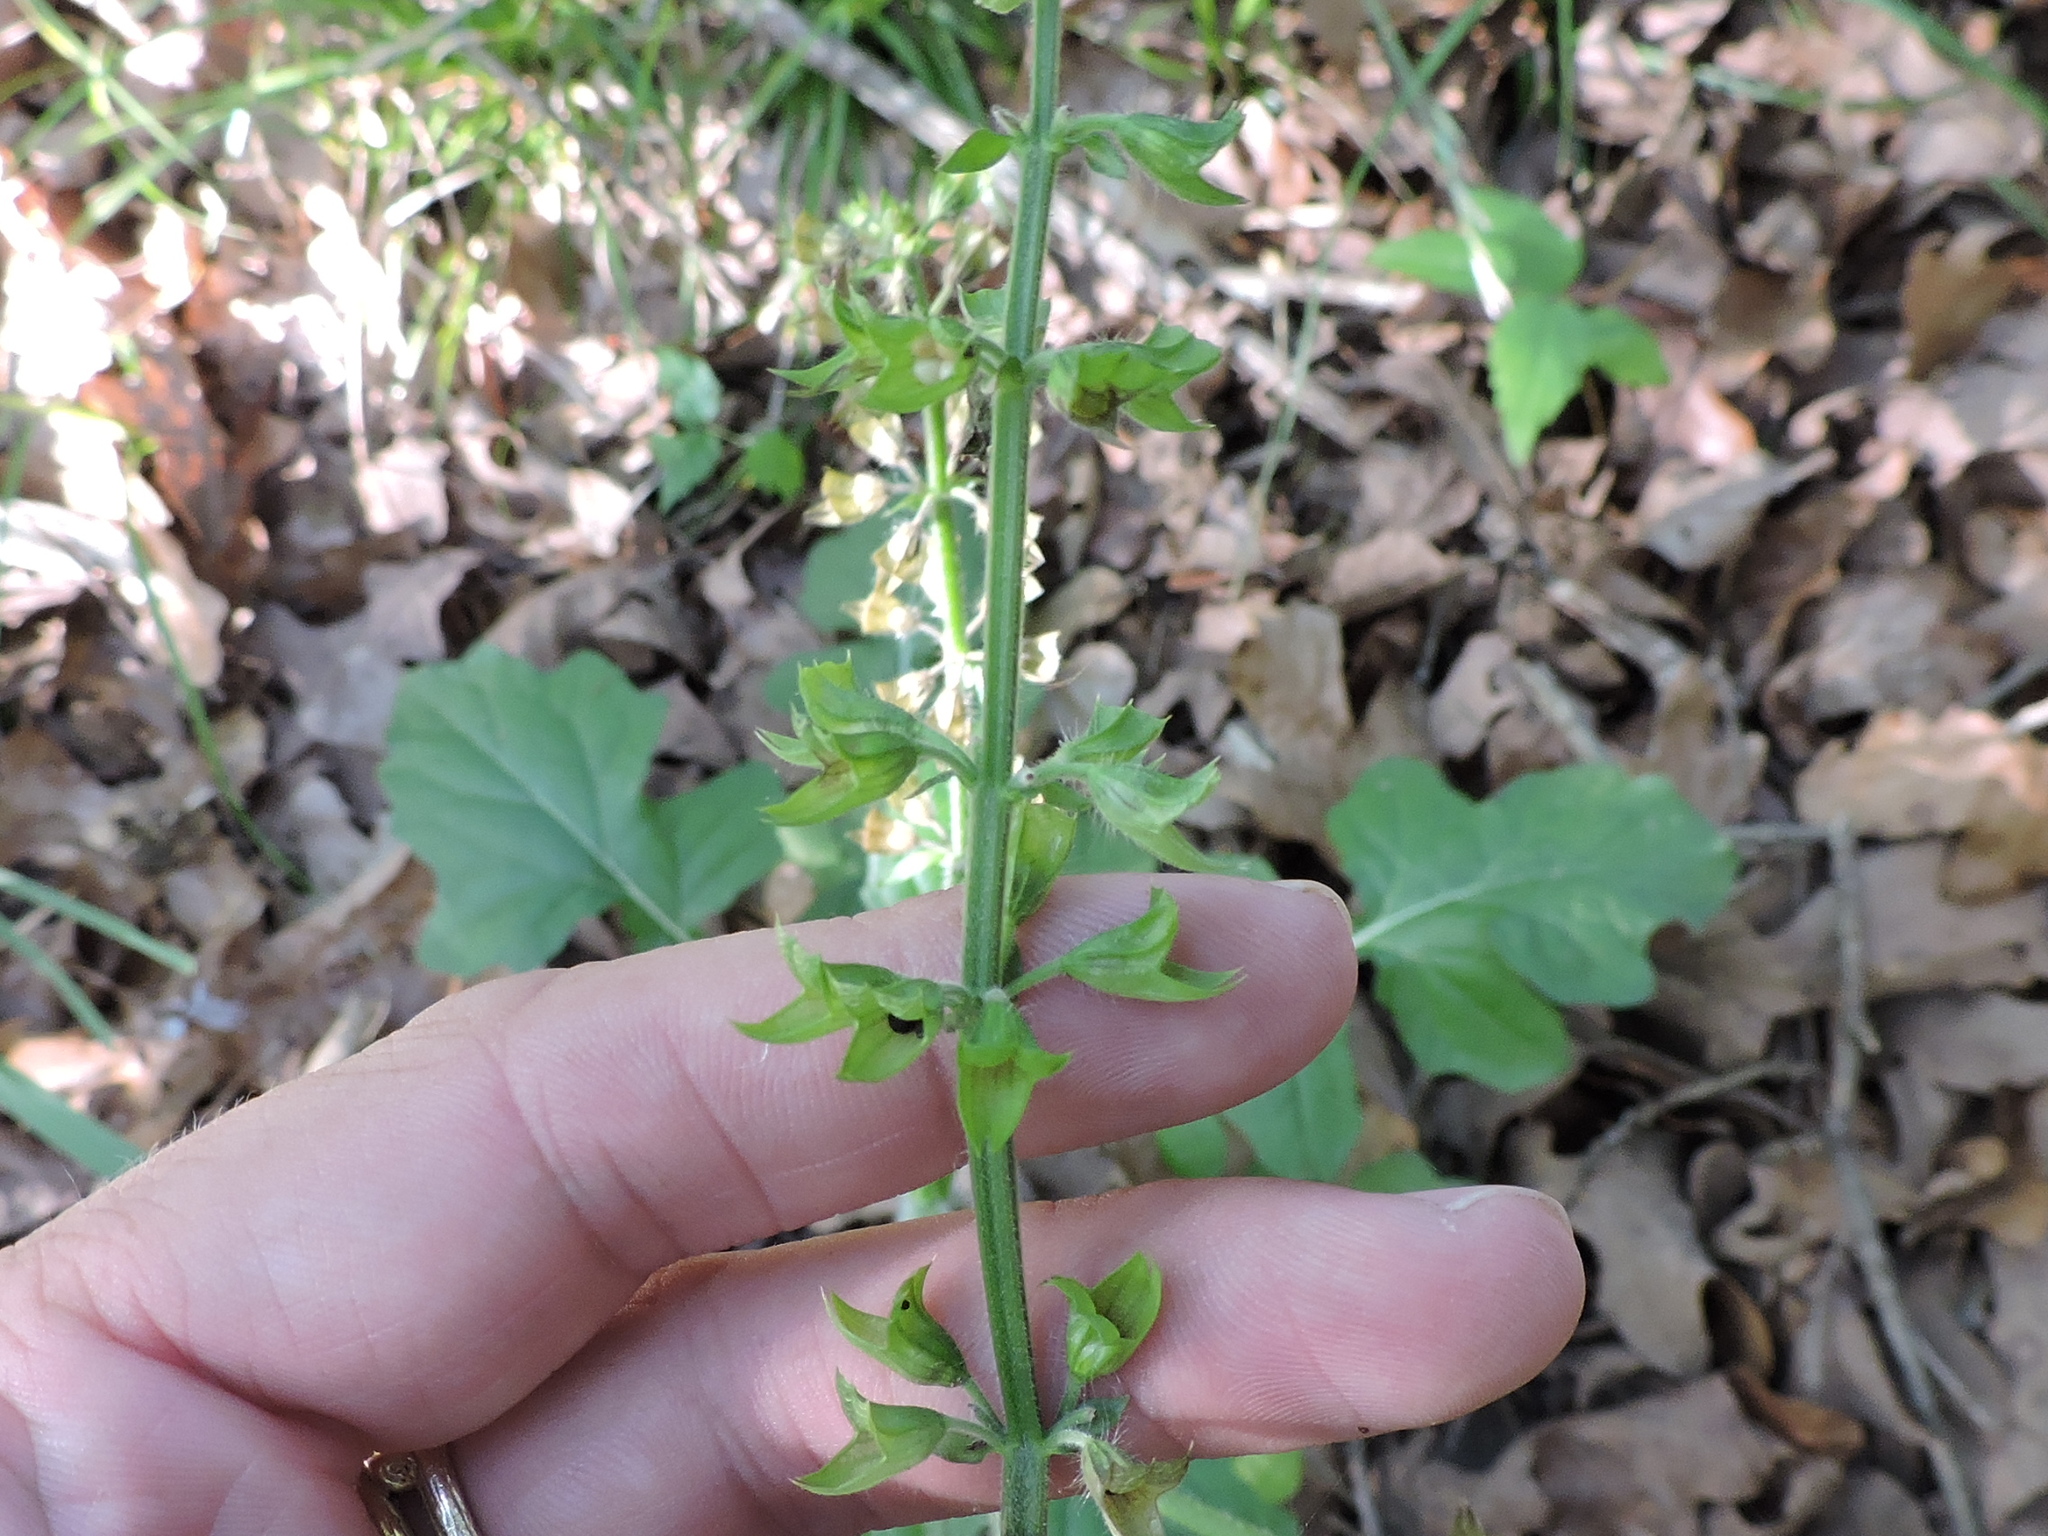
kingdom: Plantae
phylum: Tracheophyta
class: Magnoliopsida
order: Lamiales
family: Lamiaceae
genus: Salvia
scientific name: Salvia lyrata
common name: Cancerweed
